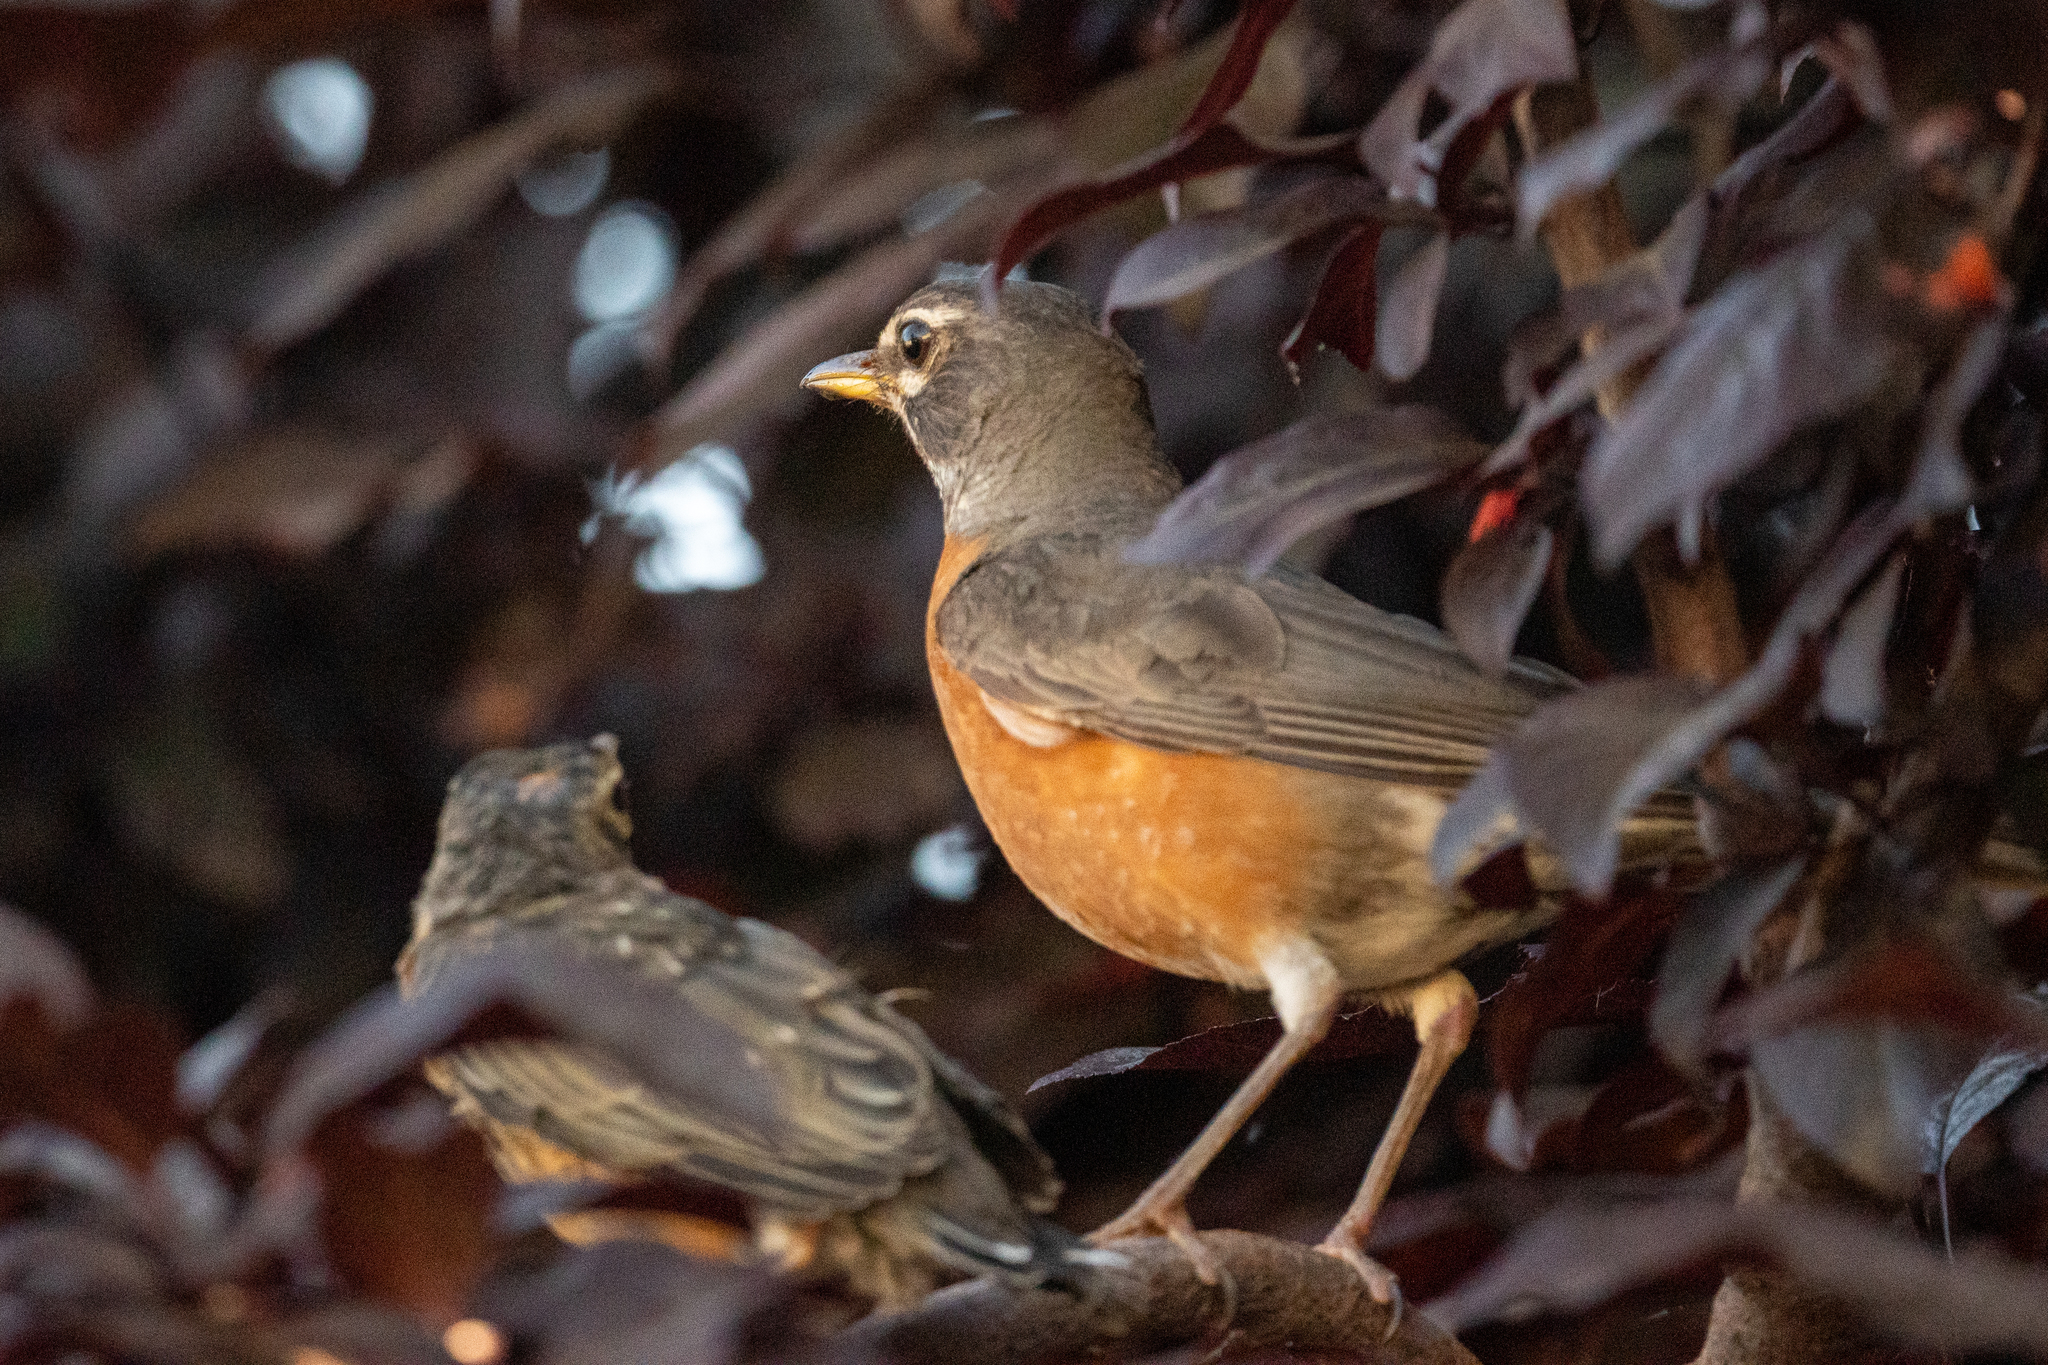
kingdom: Animalia
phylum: Chordata
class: Aves
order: Passeriformes
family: Turdidae
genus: Turdus
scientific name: Turdus migratorius
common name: American robin
